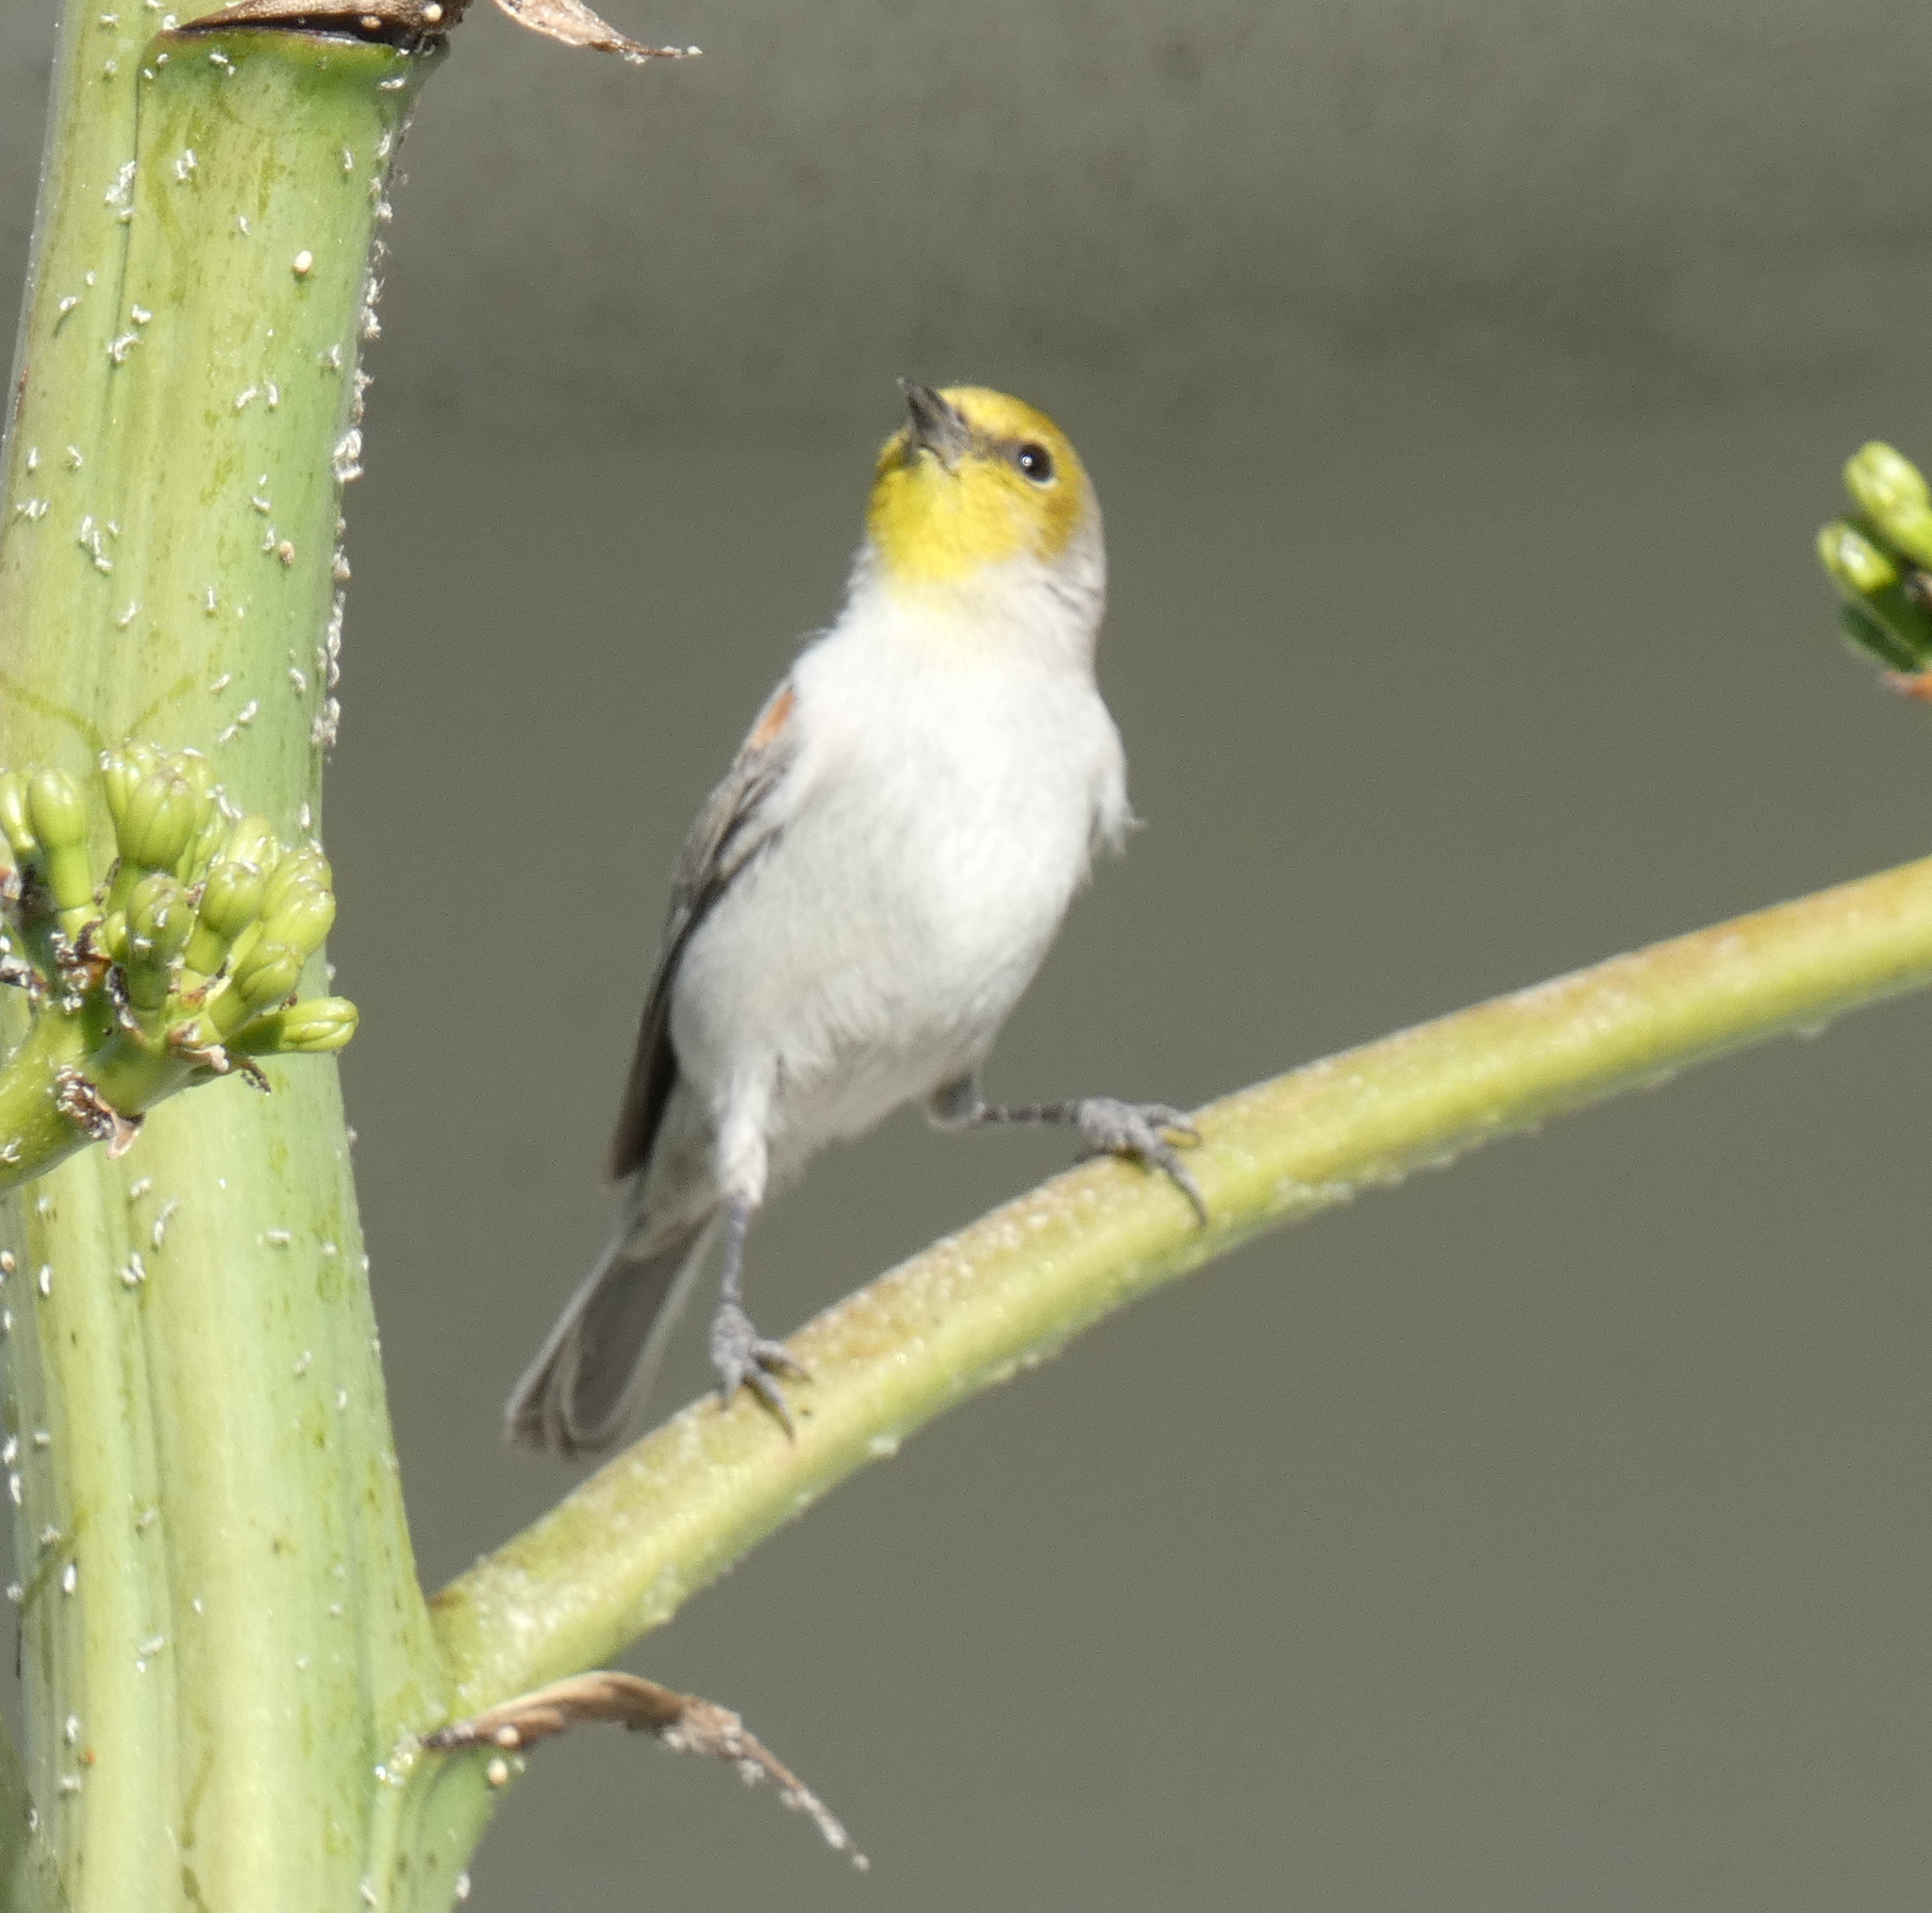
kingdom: Animalia
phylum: Chordata
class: Aves
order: Passeriformes
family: Remizidae
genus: Auriparus
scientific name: Auriparus flaviceps
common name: Verdin
